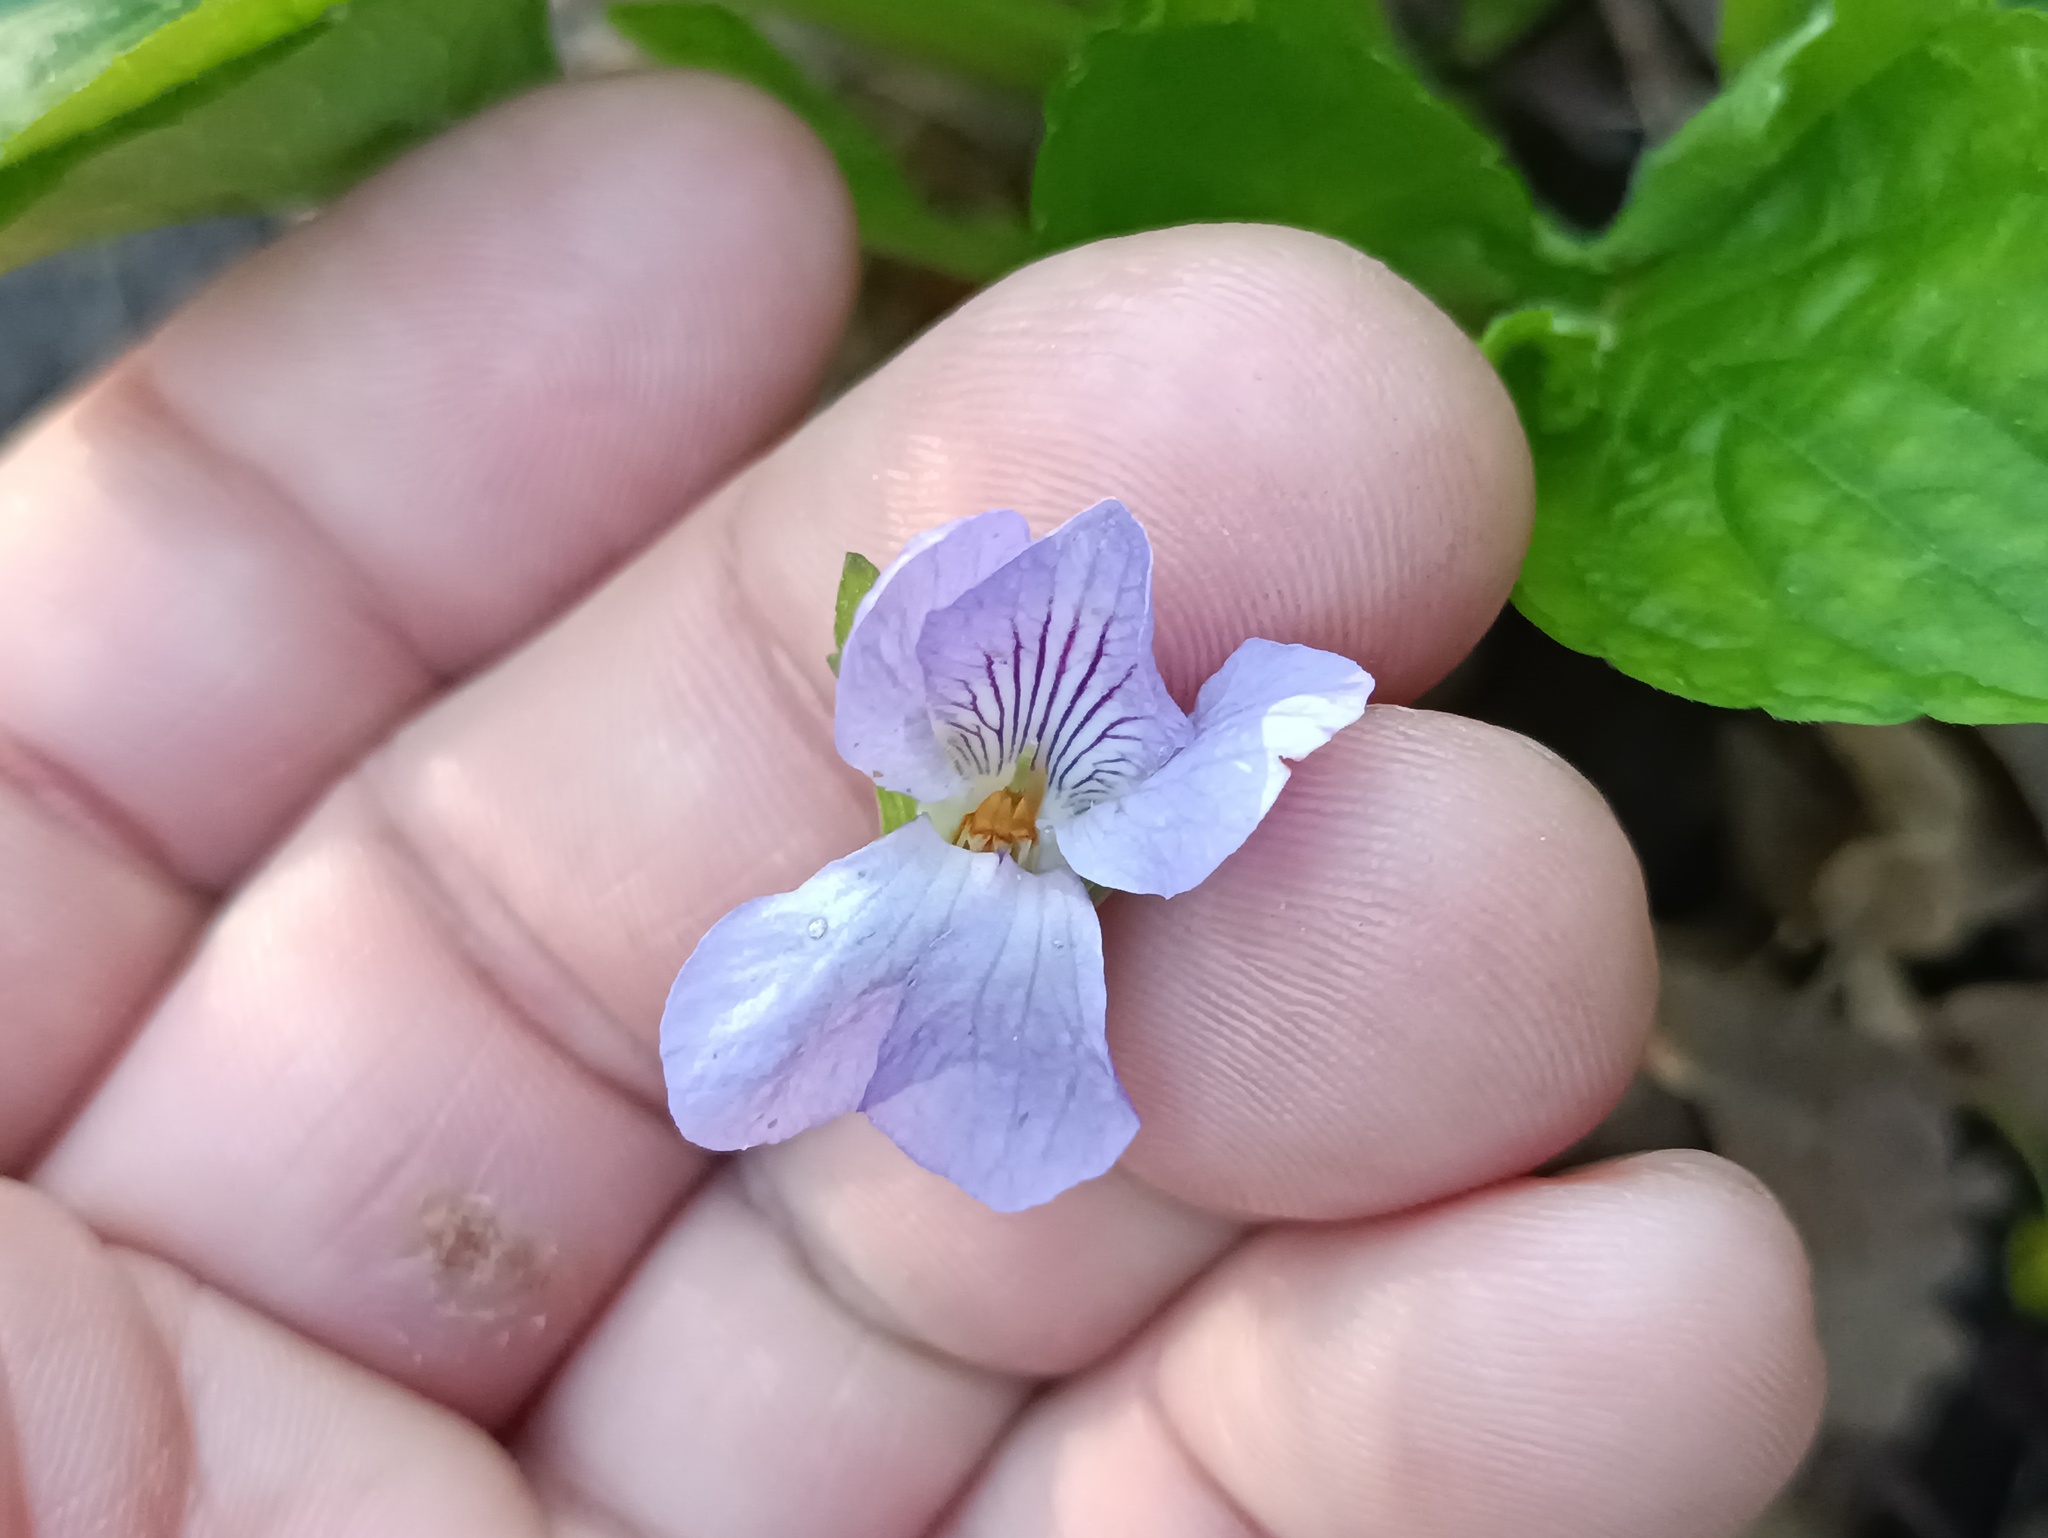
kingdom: Plantae
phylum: Tracheophyta
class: Magnoliopsida
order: Malpighiales
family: Violaceae
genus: Viola
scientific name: Viola mirabilis
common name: Wonder violet
